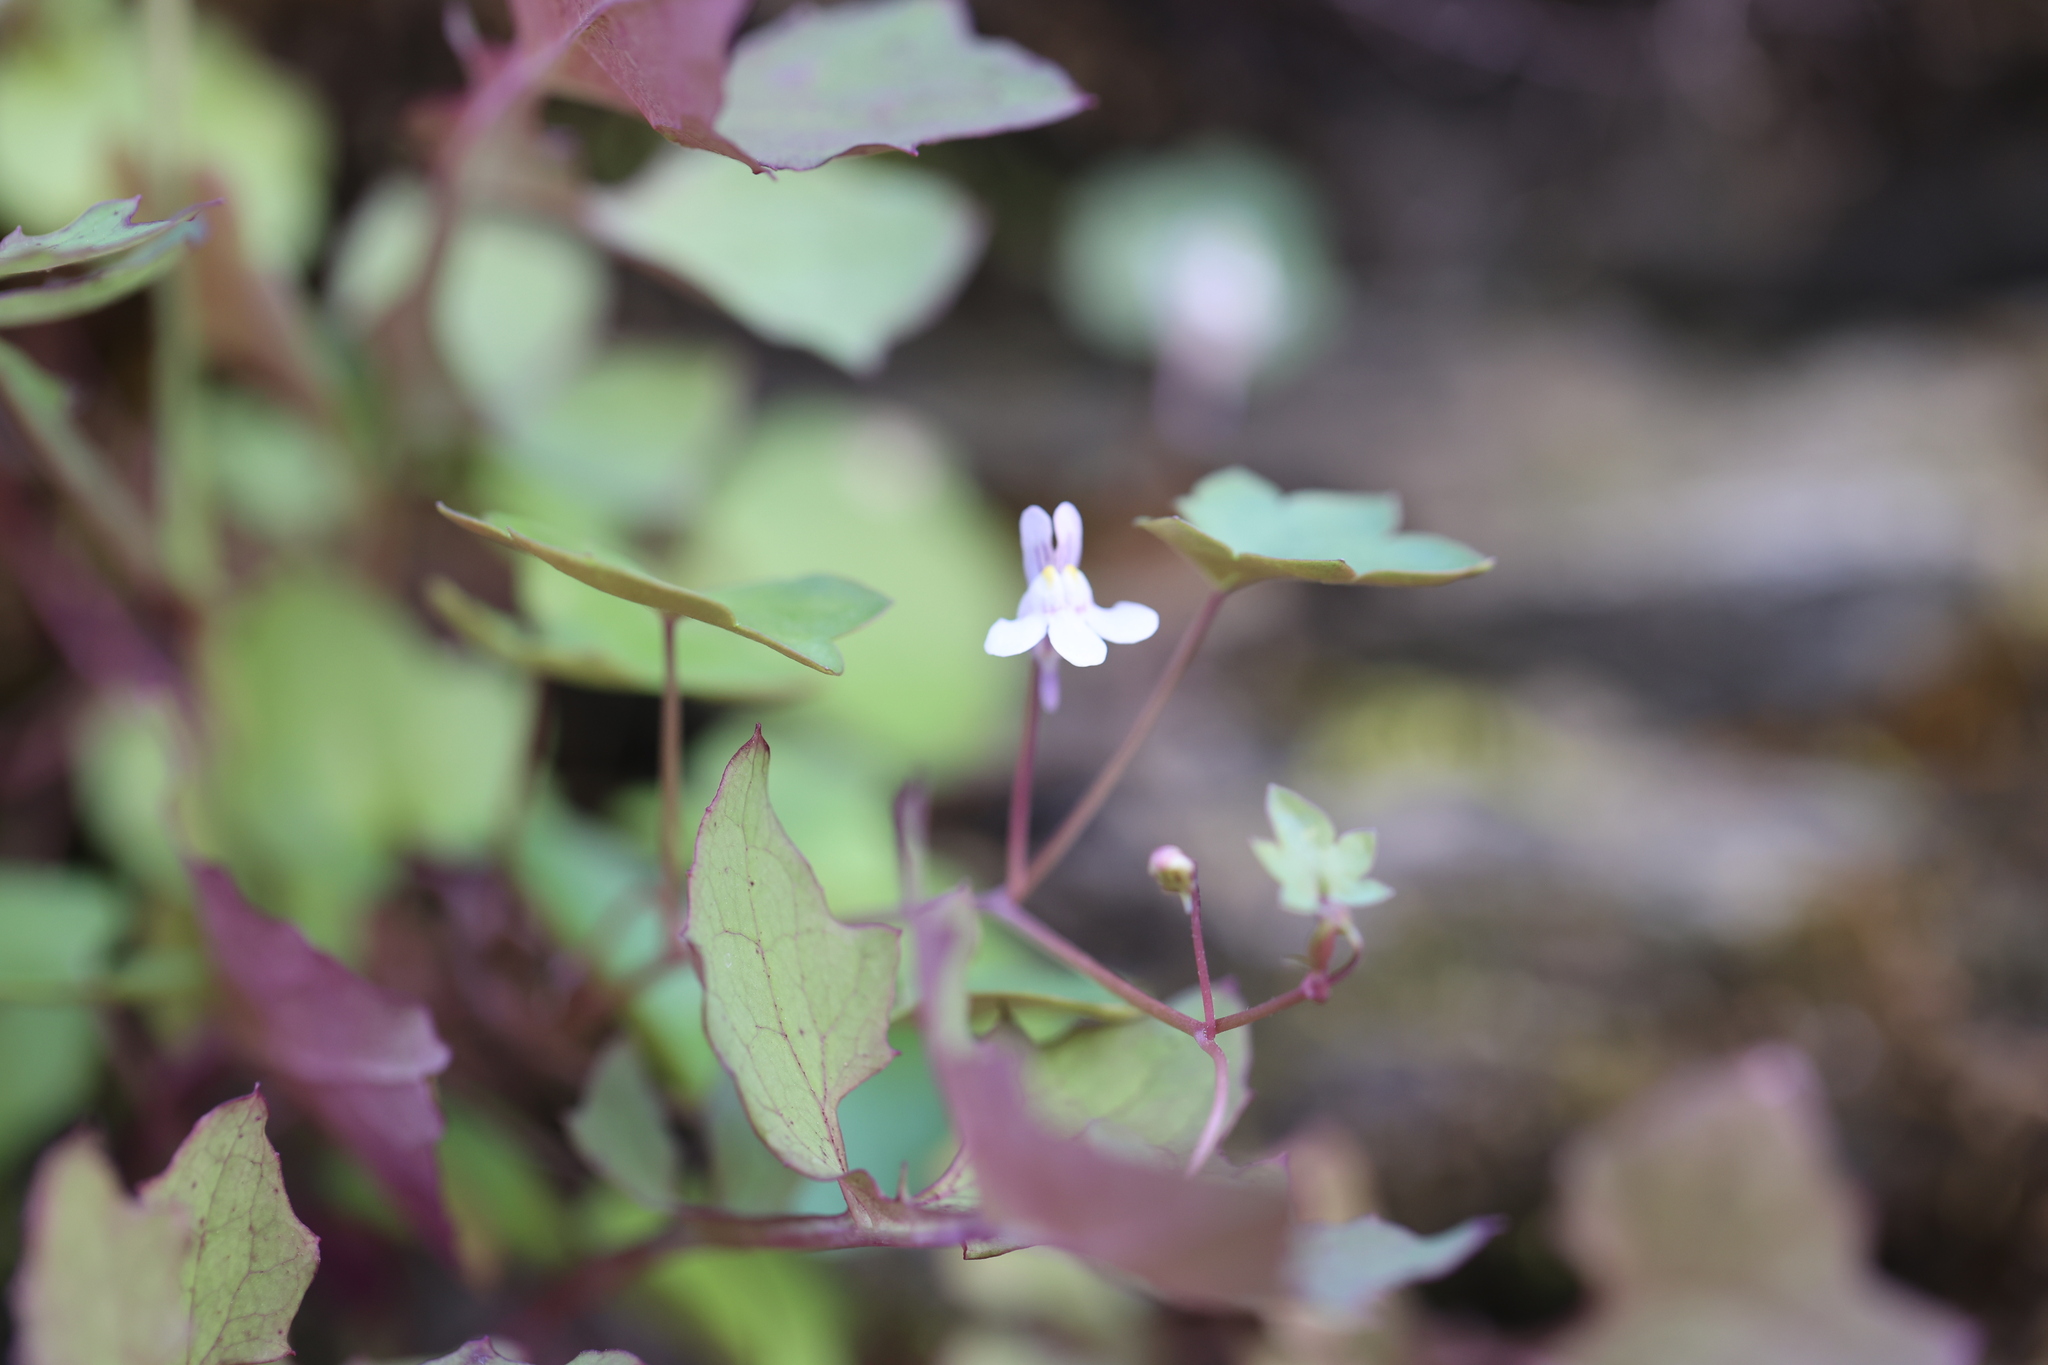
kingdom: Plantae
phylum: Tracheophyta
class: Magnoliopsida
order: Lamiales
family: Plantaginaceae
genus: Cymbalaria
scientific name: Cymbalaria muralis
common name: Ivy-leaved toadflax
